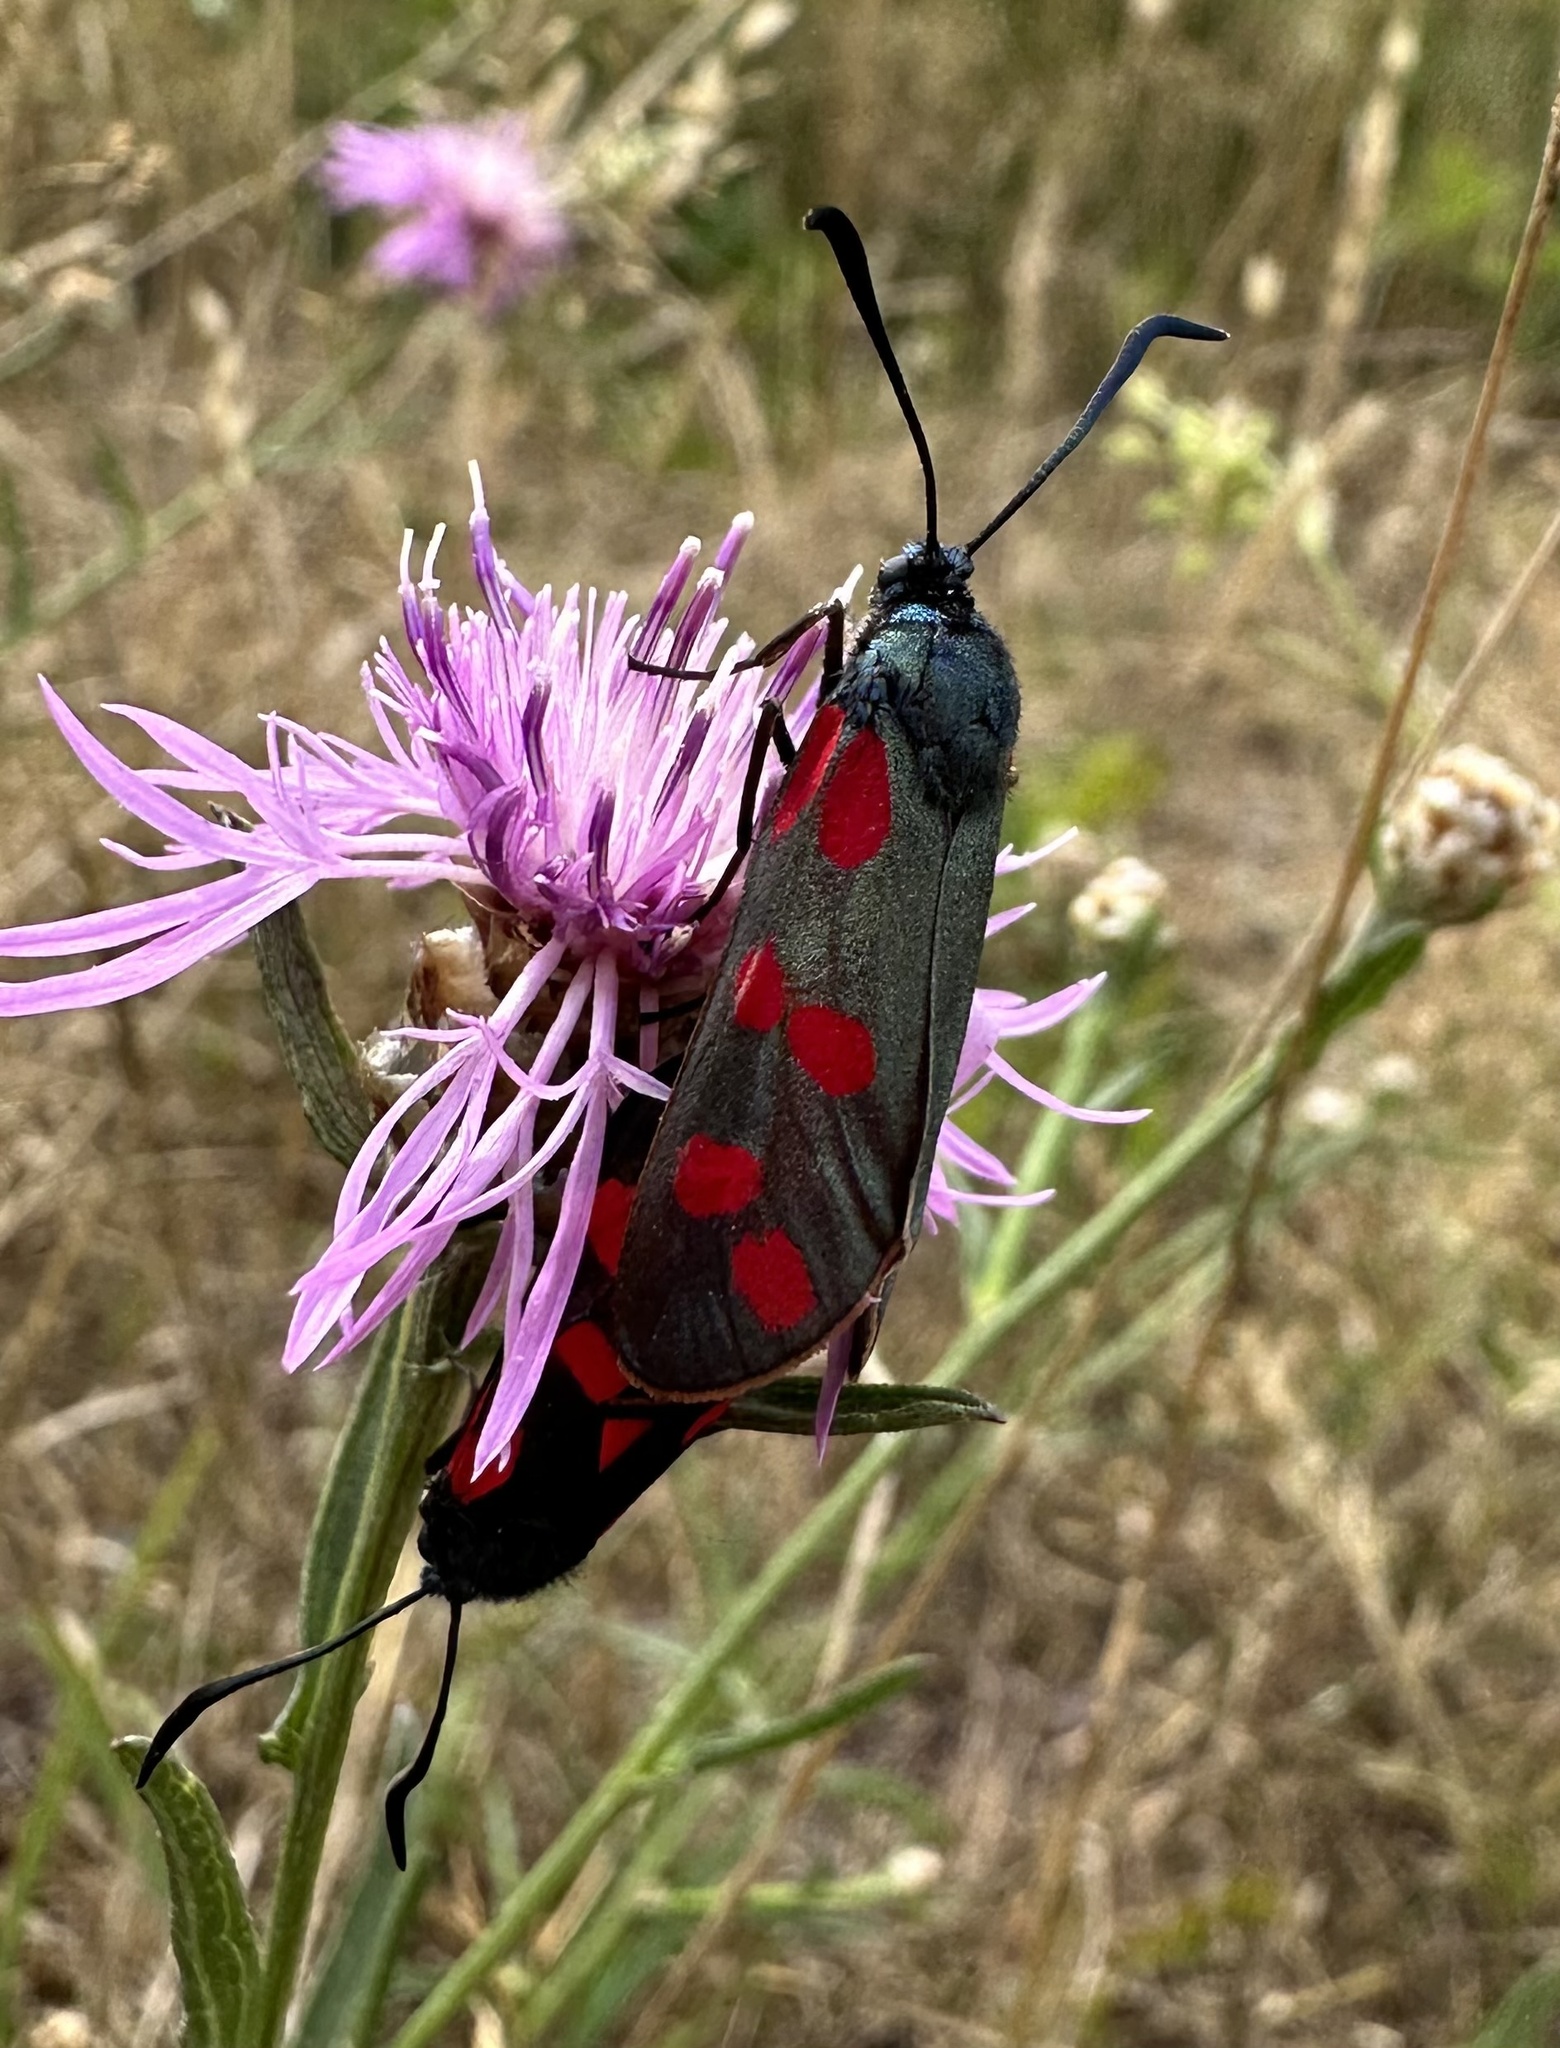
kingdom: Animalia
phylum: Arthropoda
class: Insecta
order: Lepidoptera
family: Zygaenidae
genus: Zygaena
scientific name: Zygaena filipendulae
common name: Six-spot burnet
